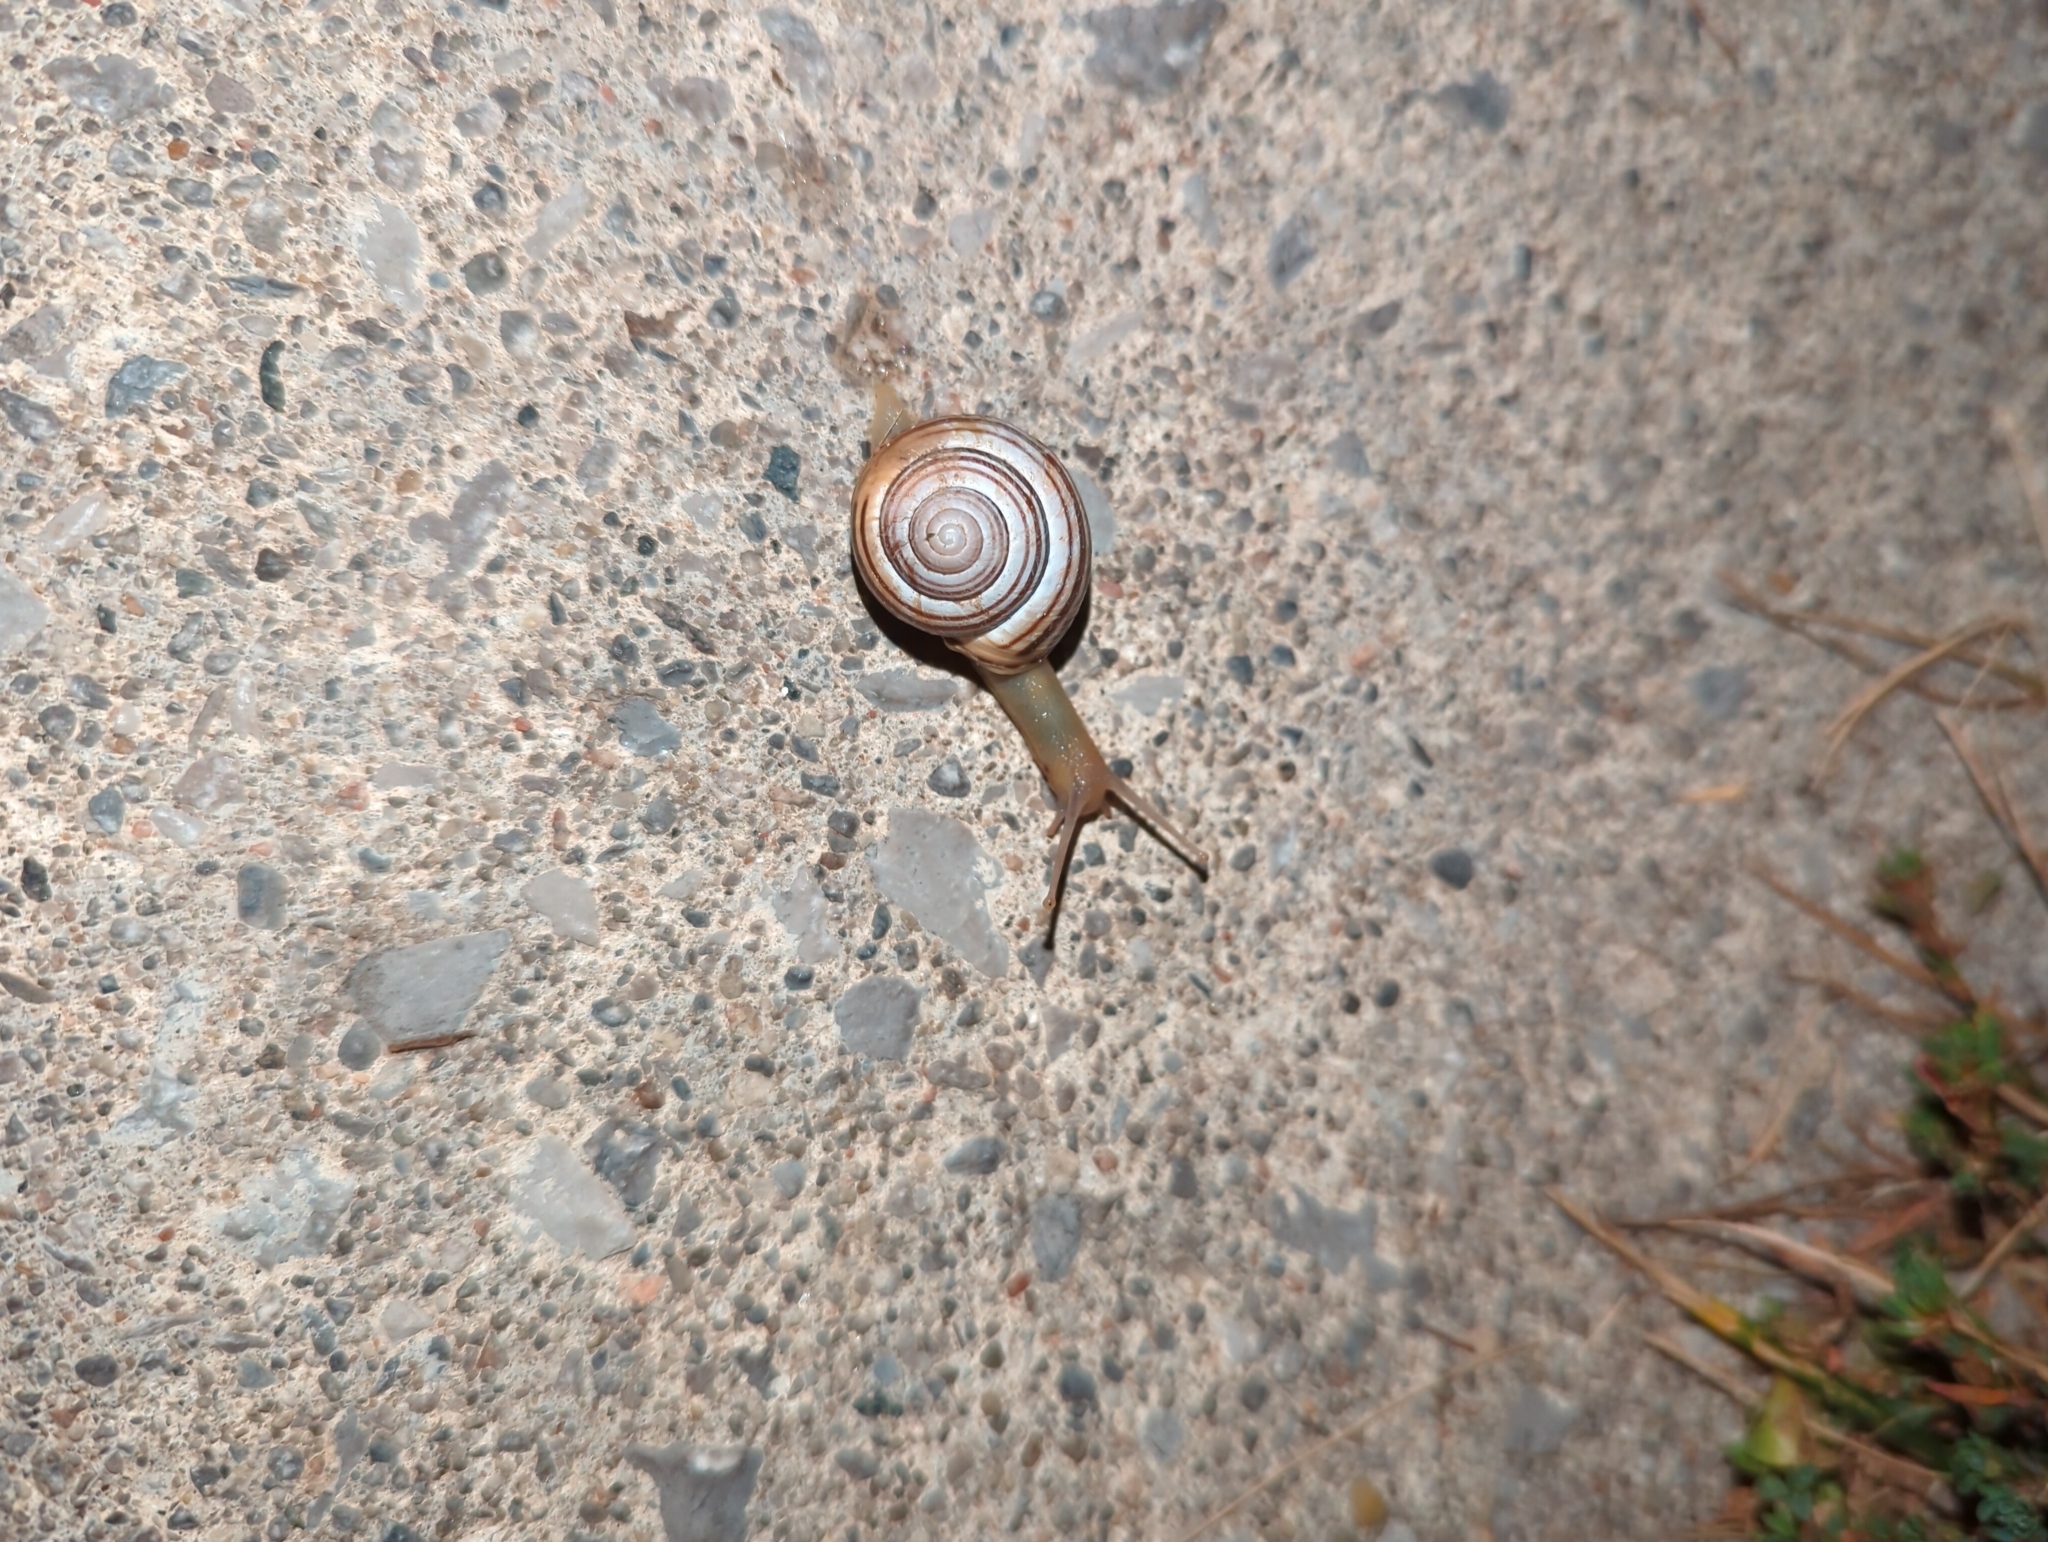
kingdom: Animalia
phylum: Mollusca
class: Gastropoda
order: Stylommatophora
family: Helicidae
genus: Cepaea
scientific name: Cepaea nemoralis
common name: Grovesnail
